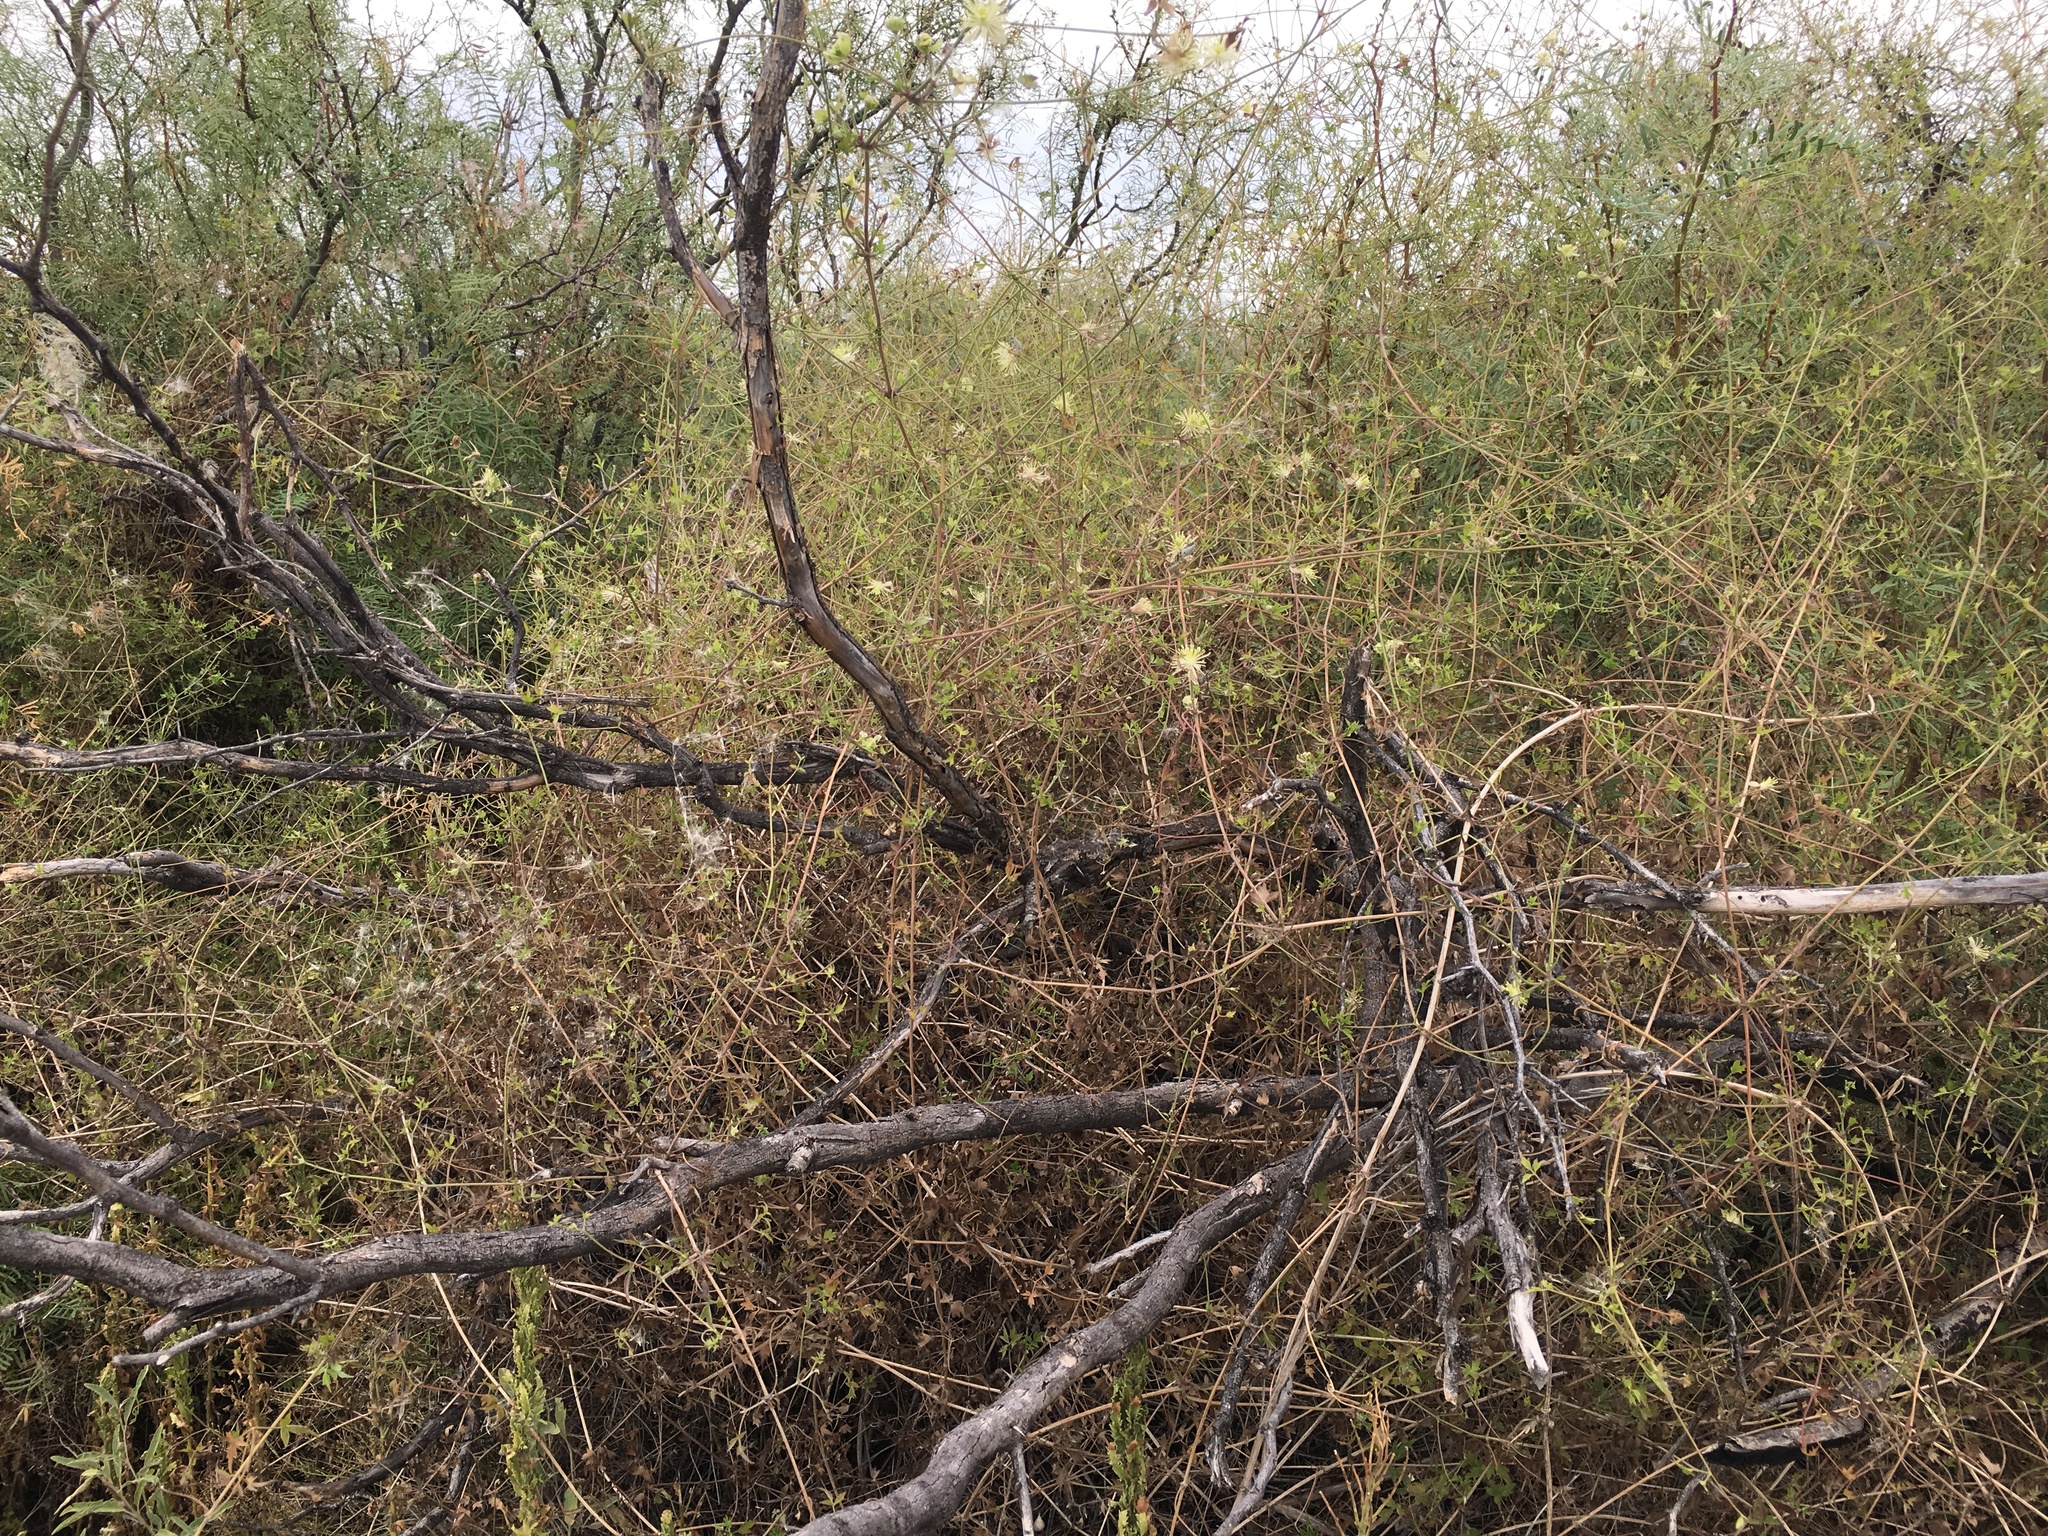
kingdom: Plantae
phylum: Tracheophyta
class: Magnoliopsida
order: Ranunculales
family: Ranunculaceae
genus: Clematis
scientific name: Clematis drummondii
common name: Texas virgin's bower
